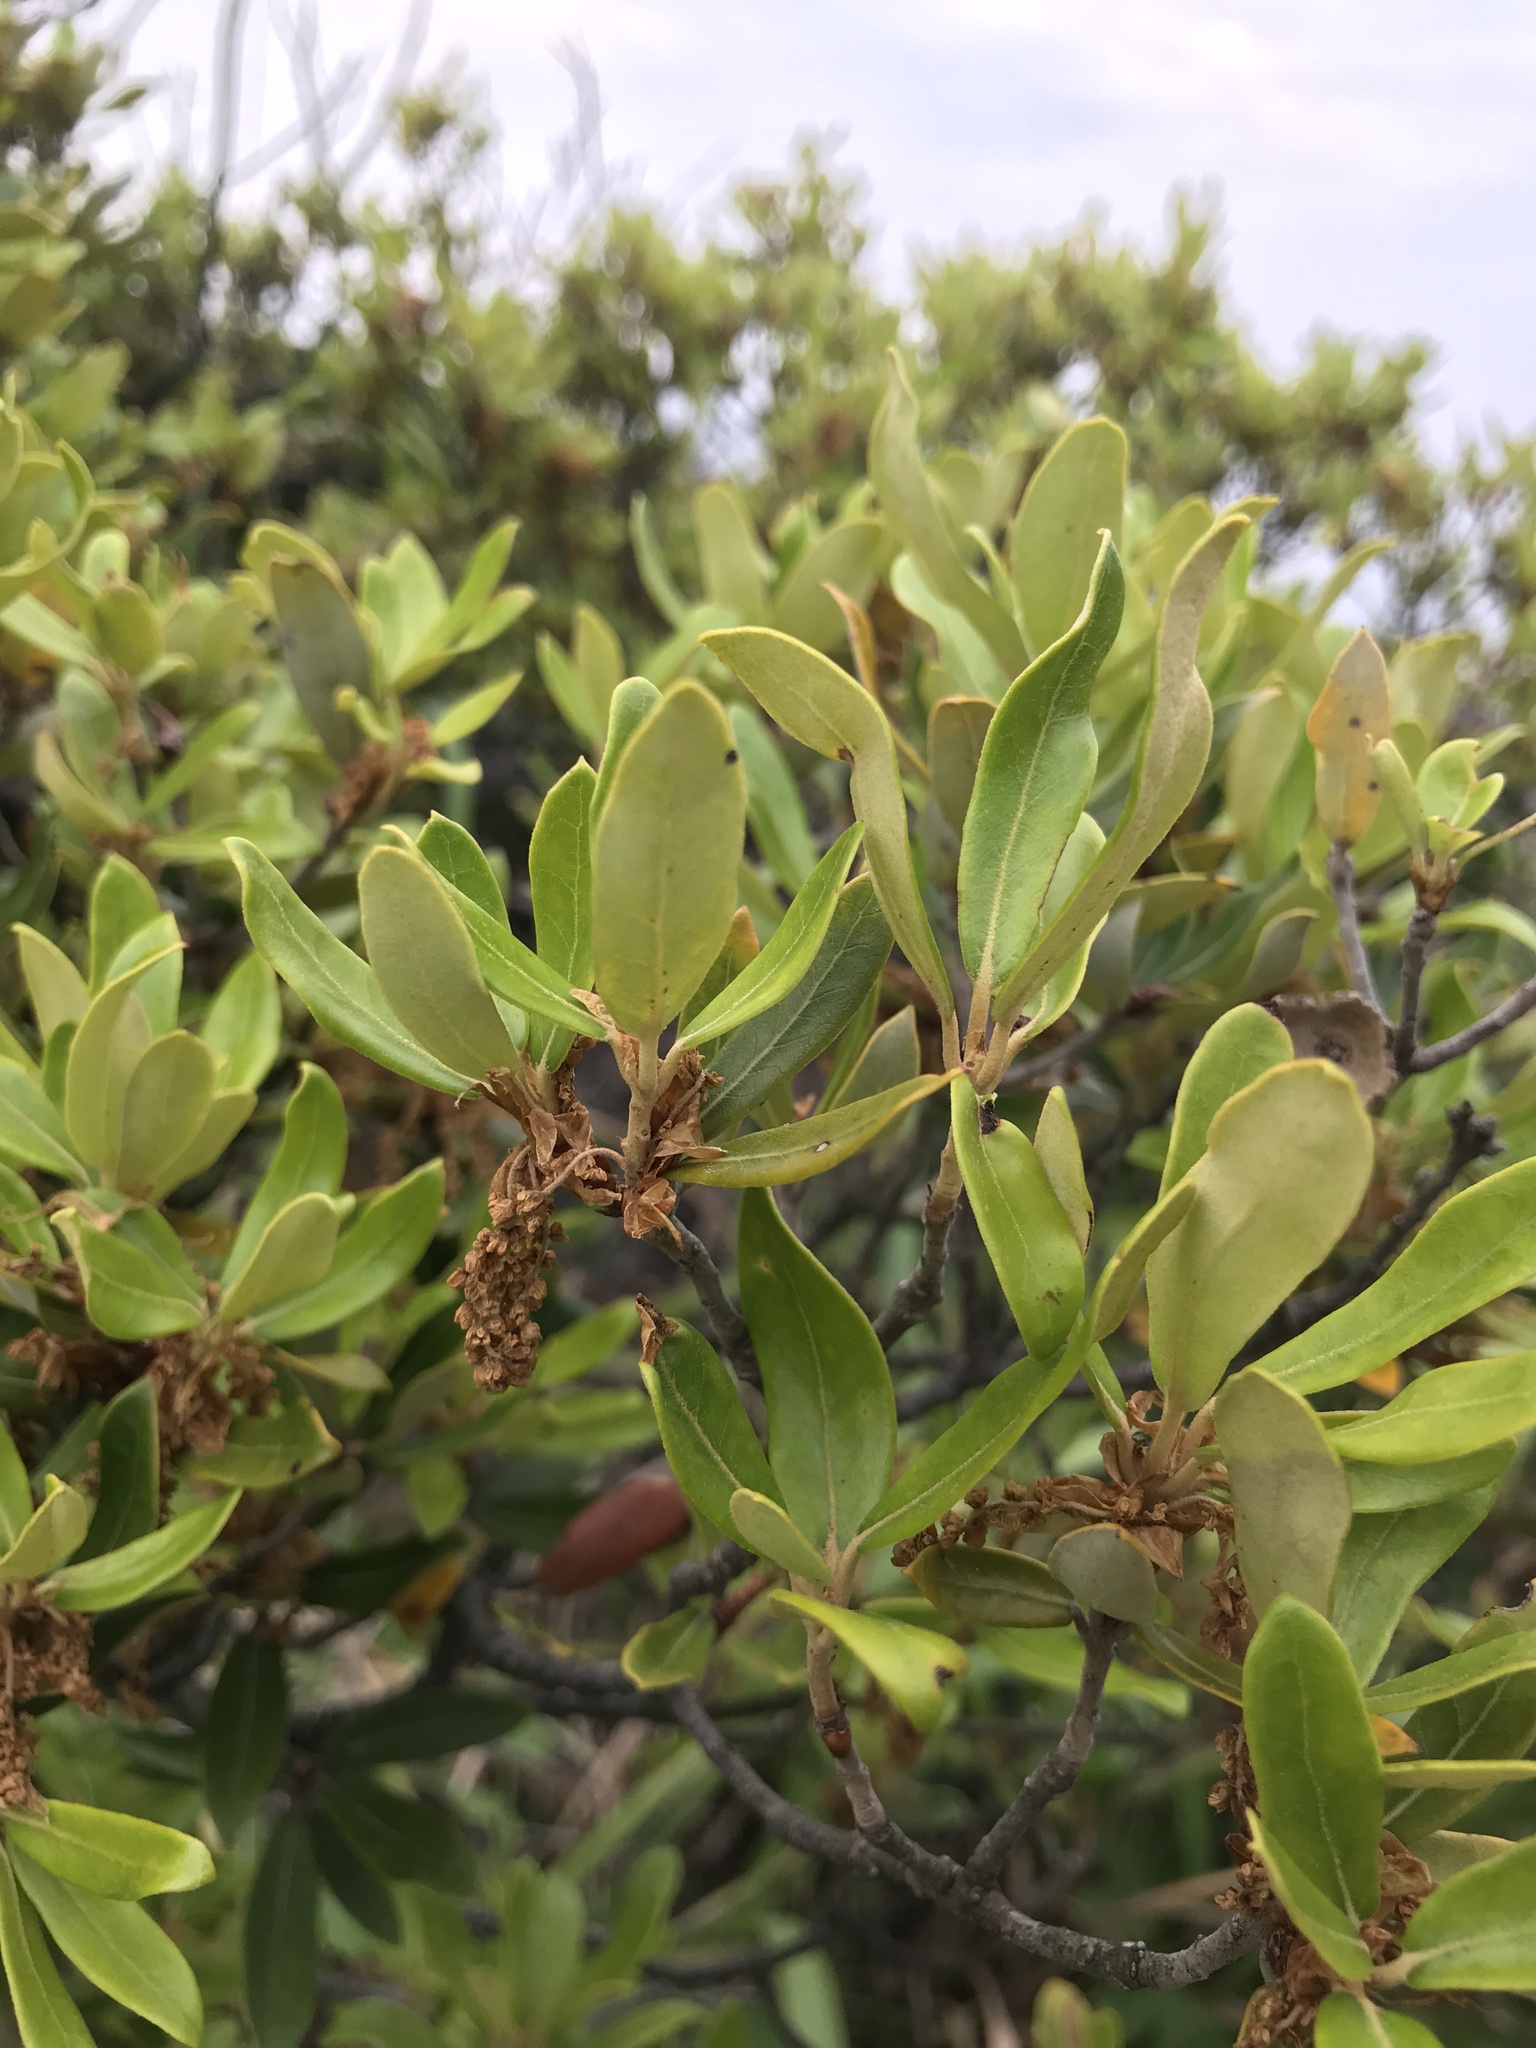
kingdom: Plantae
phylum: Tracheophyta
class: Magnoliopsida
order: Fagales
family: Fagaceae
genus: Quercus
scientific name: Quercus phillyreoides
